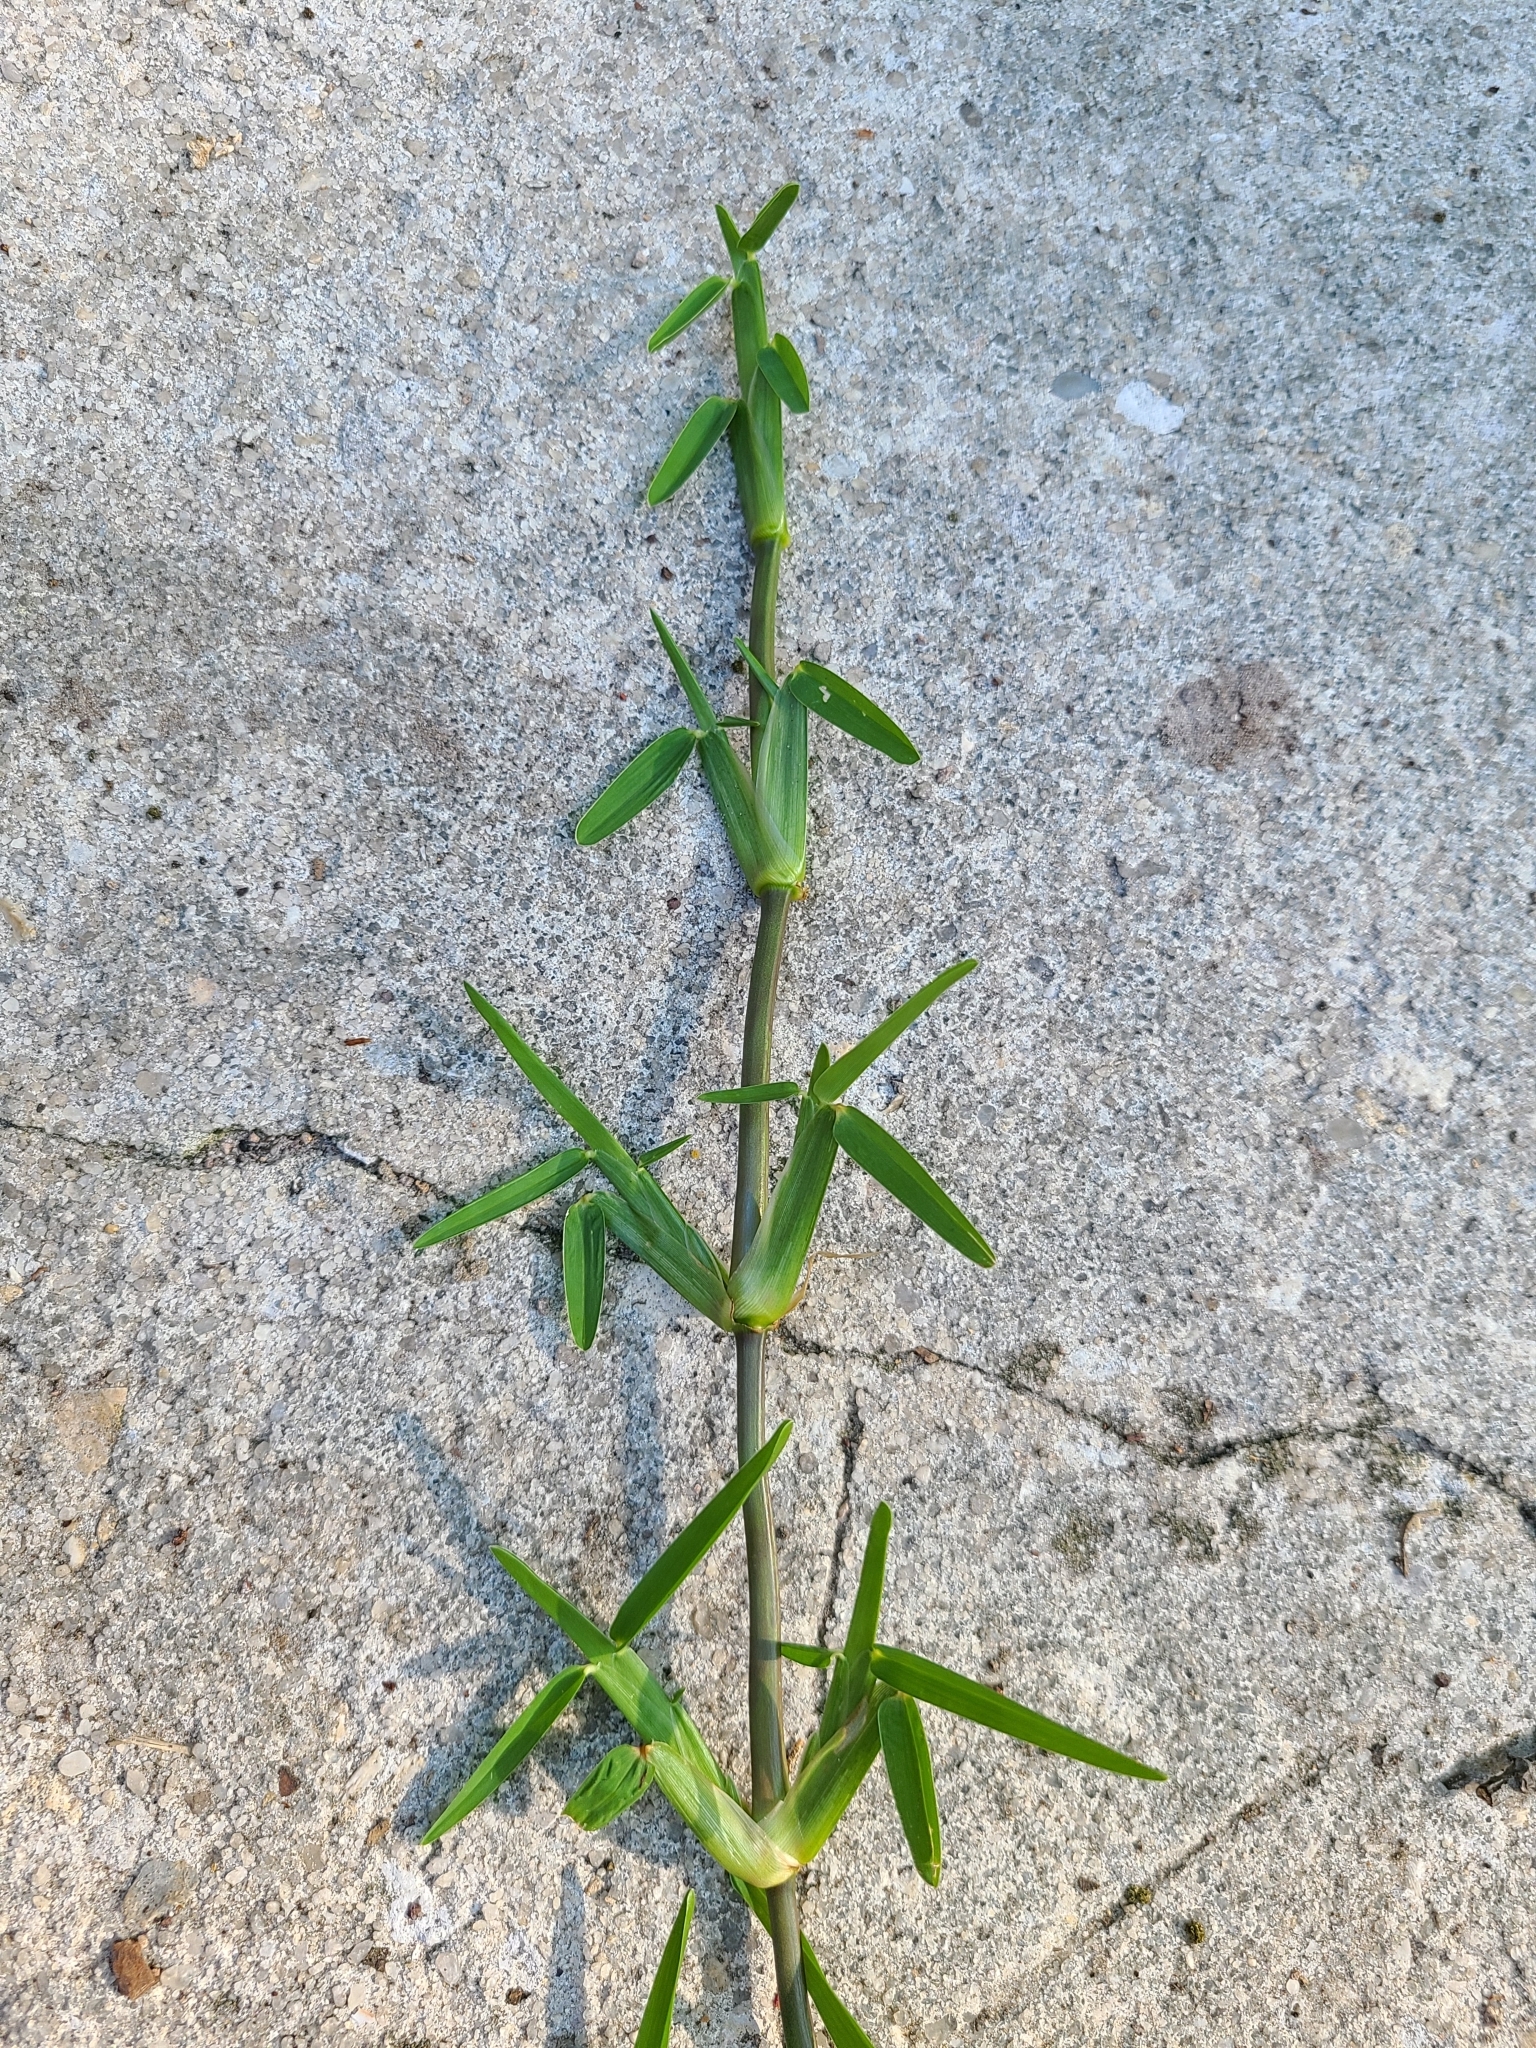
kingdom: Plantae
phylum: Tracheophyta
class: Liliopsida
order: Poales
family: Poaceae
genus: Stenotaphrum
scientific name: Stenotaphrum secundatum
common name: St. augustine grass
